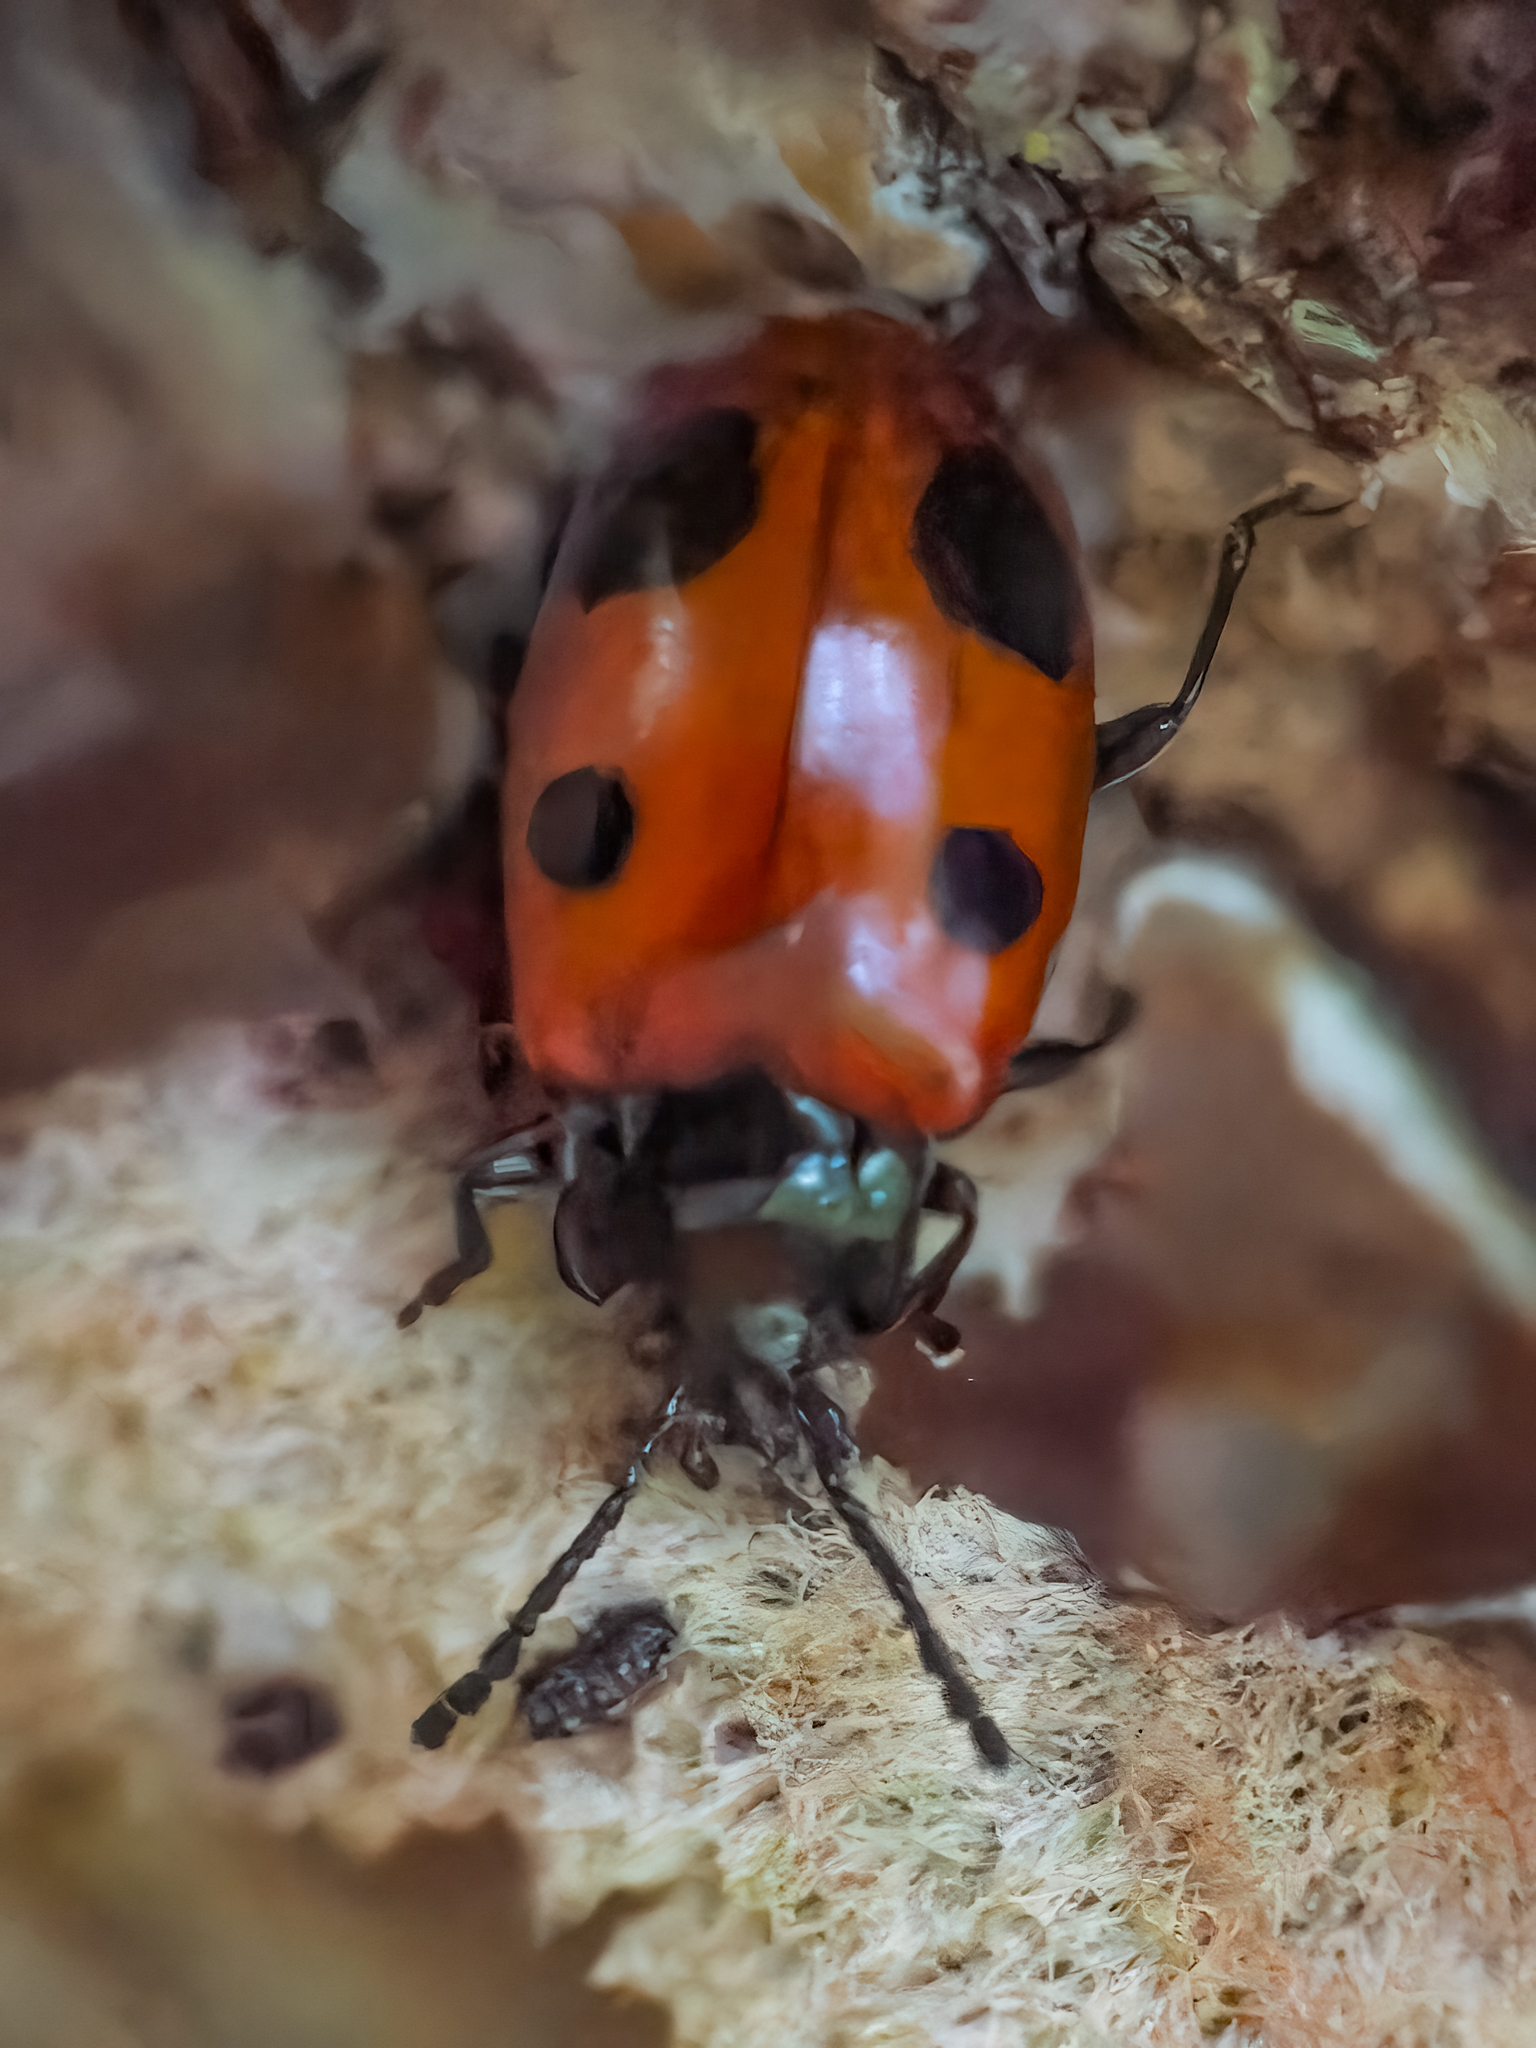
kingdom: Animalia
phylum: Arthropoda
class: Insecta
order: Coleoptera
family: Endomychidae
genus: Endomychus
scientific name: Endomychus biguttatus
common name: Handsome fungus beetle
